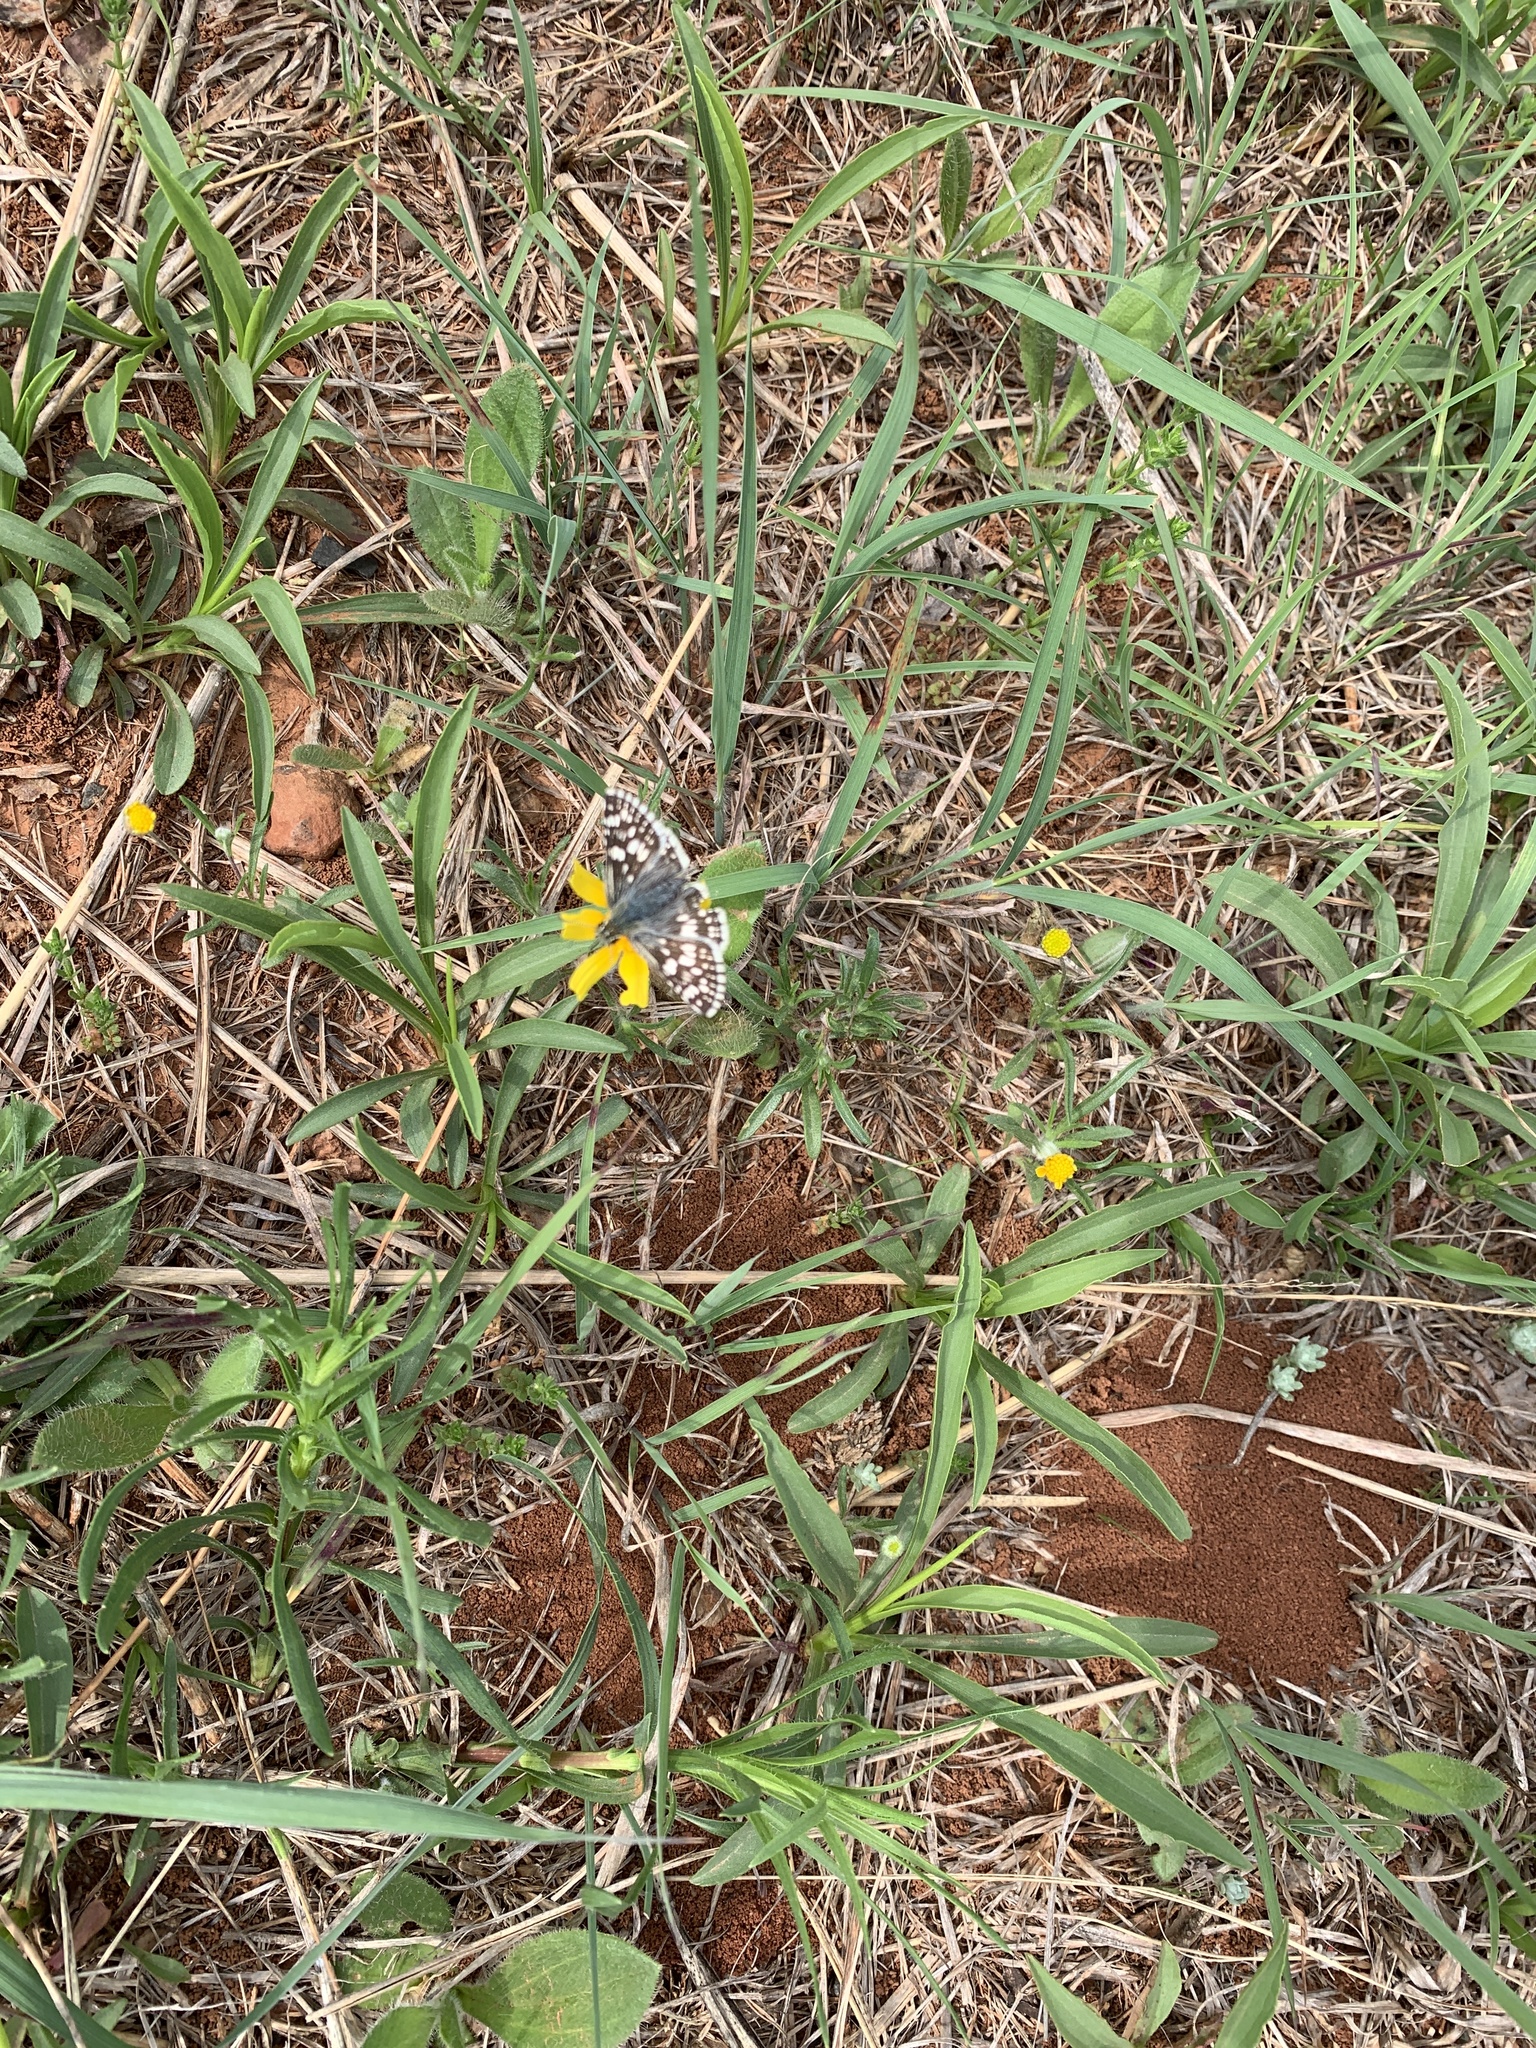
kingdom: Animalia
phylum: Arthropoda
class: Insecta
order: Lepidoptera
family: Hesperiidae
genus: Burnsius
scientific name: Burnsius communis
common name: Common checkered-skipper
